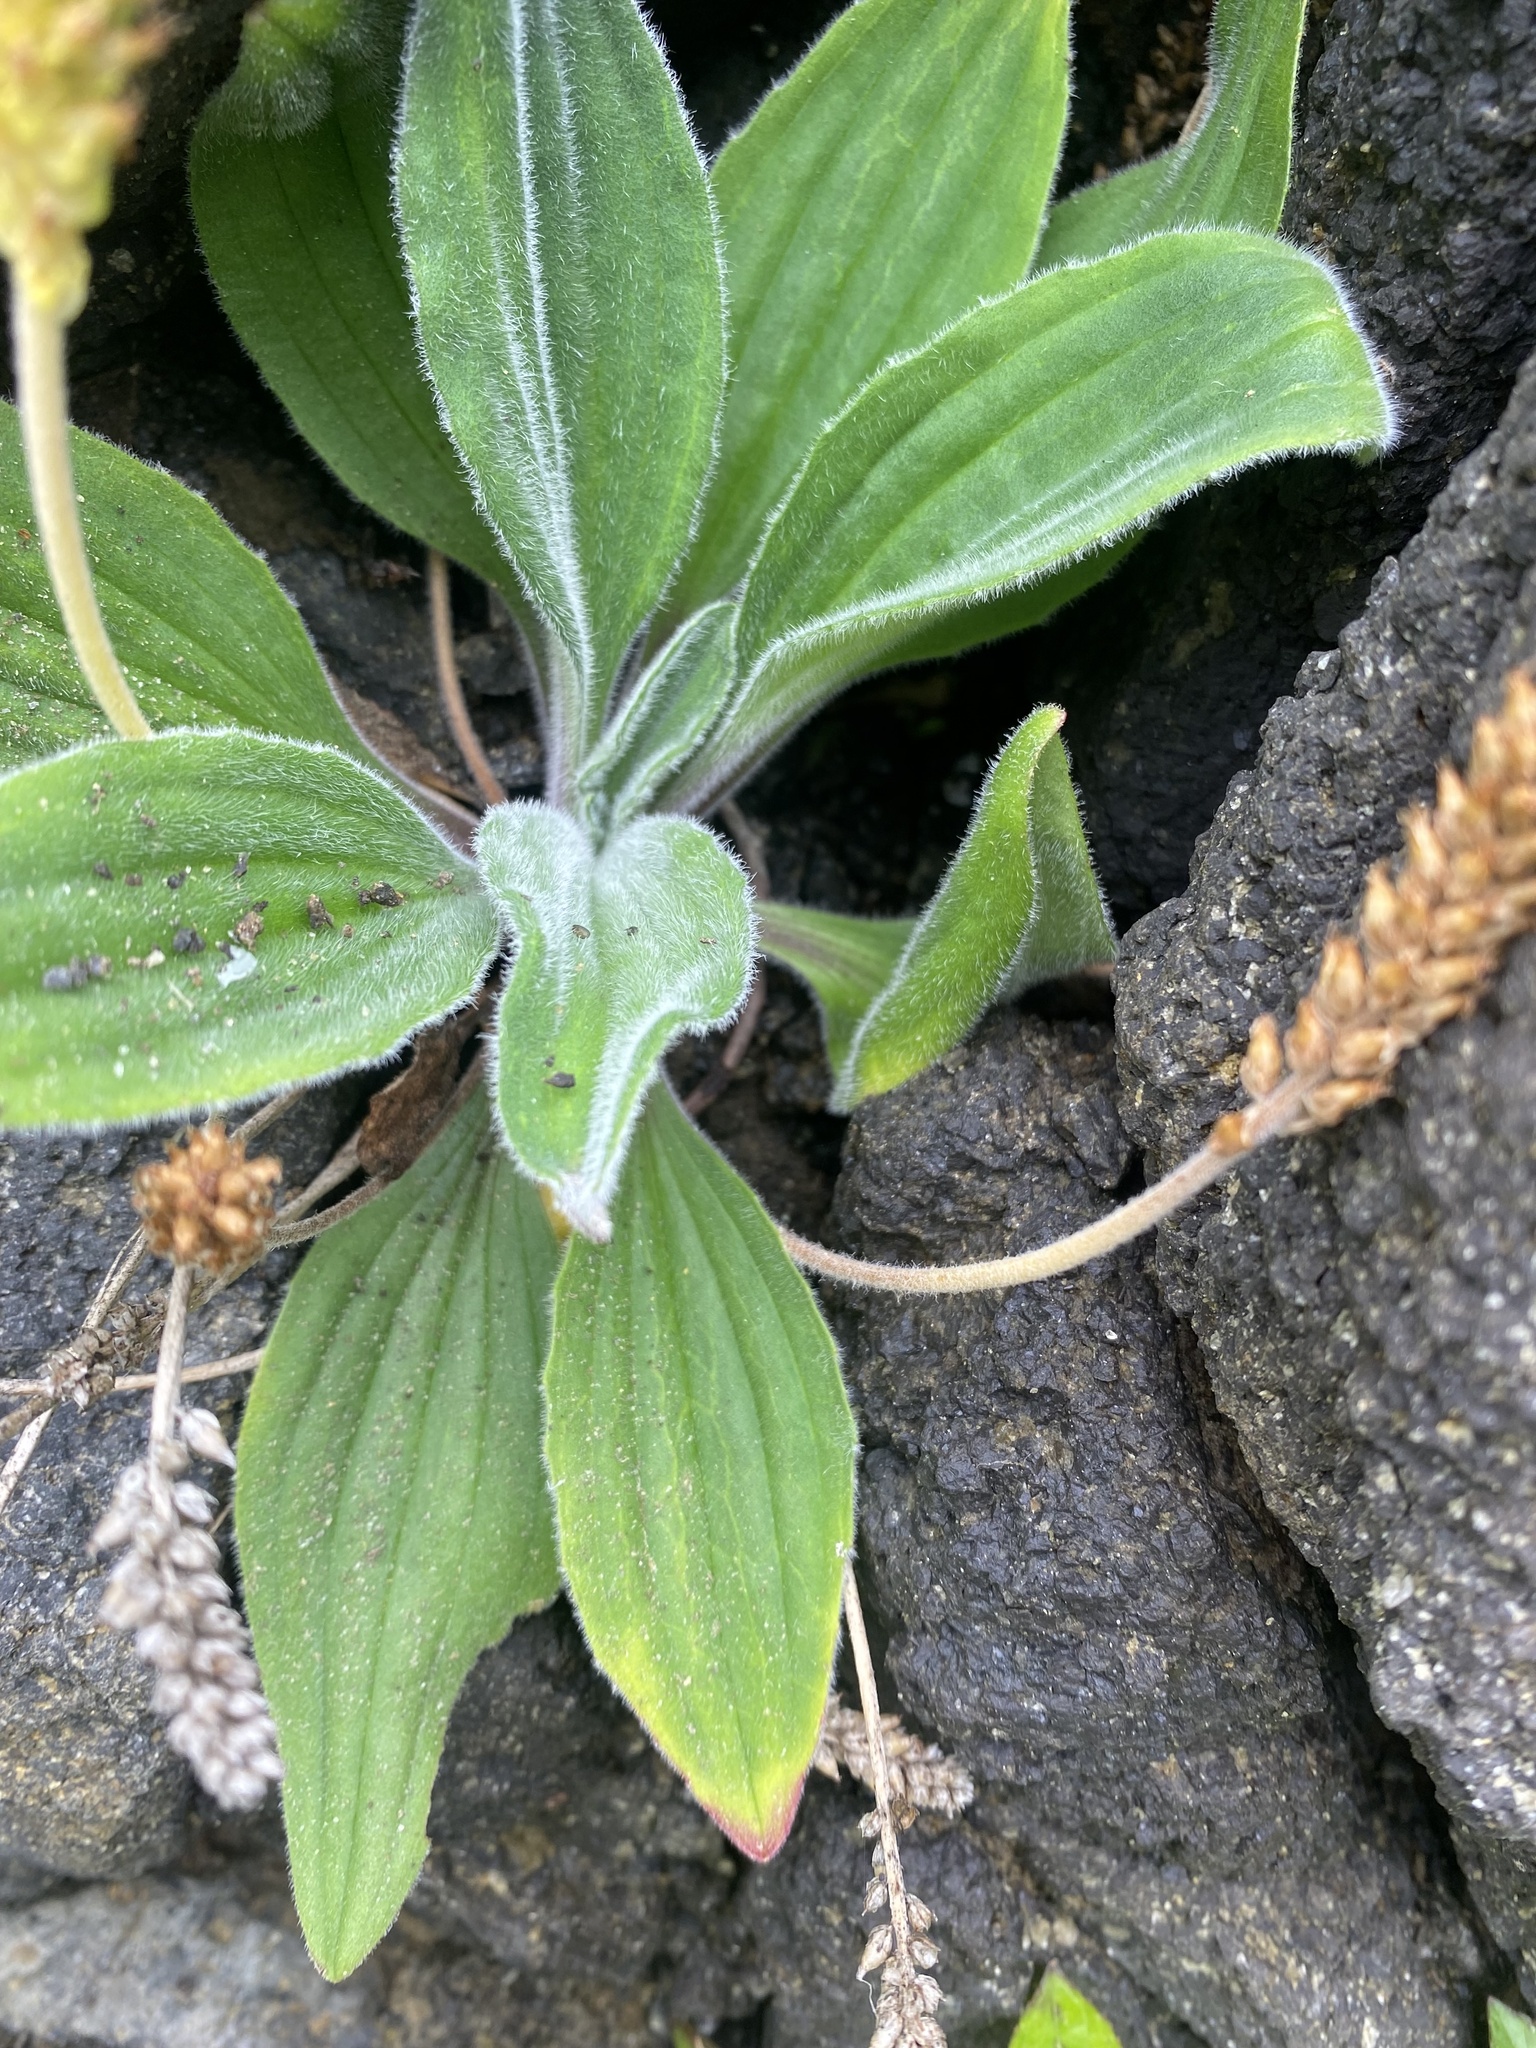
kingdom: Plantae
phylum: Tracheophyta
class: Magnoliopsida
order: Lamiales
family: Plantaginaceae
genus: Plantago
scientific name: Plantago camtschatica
